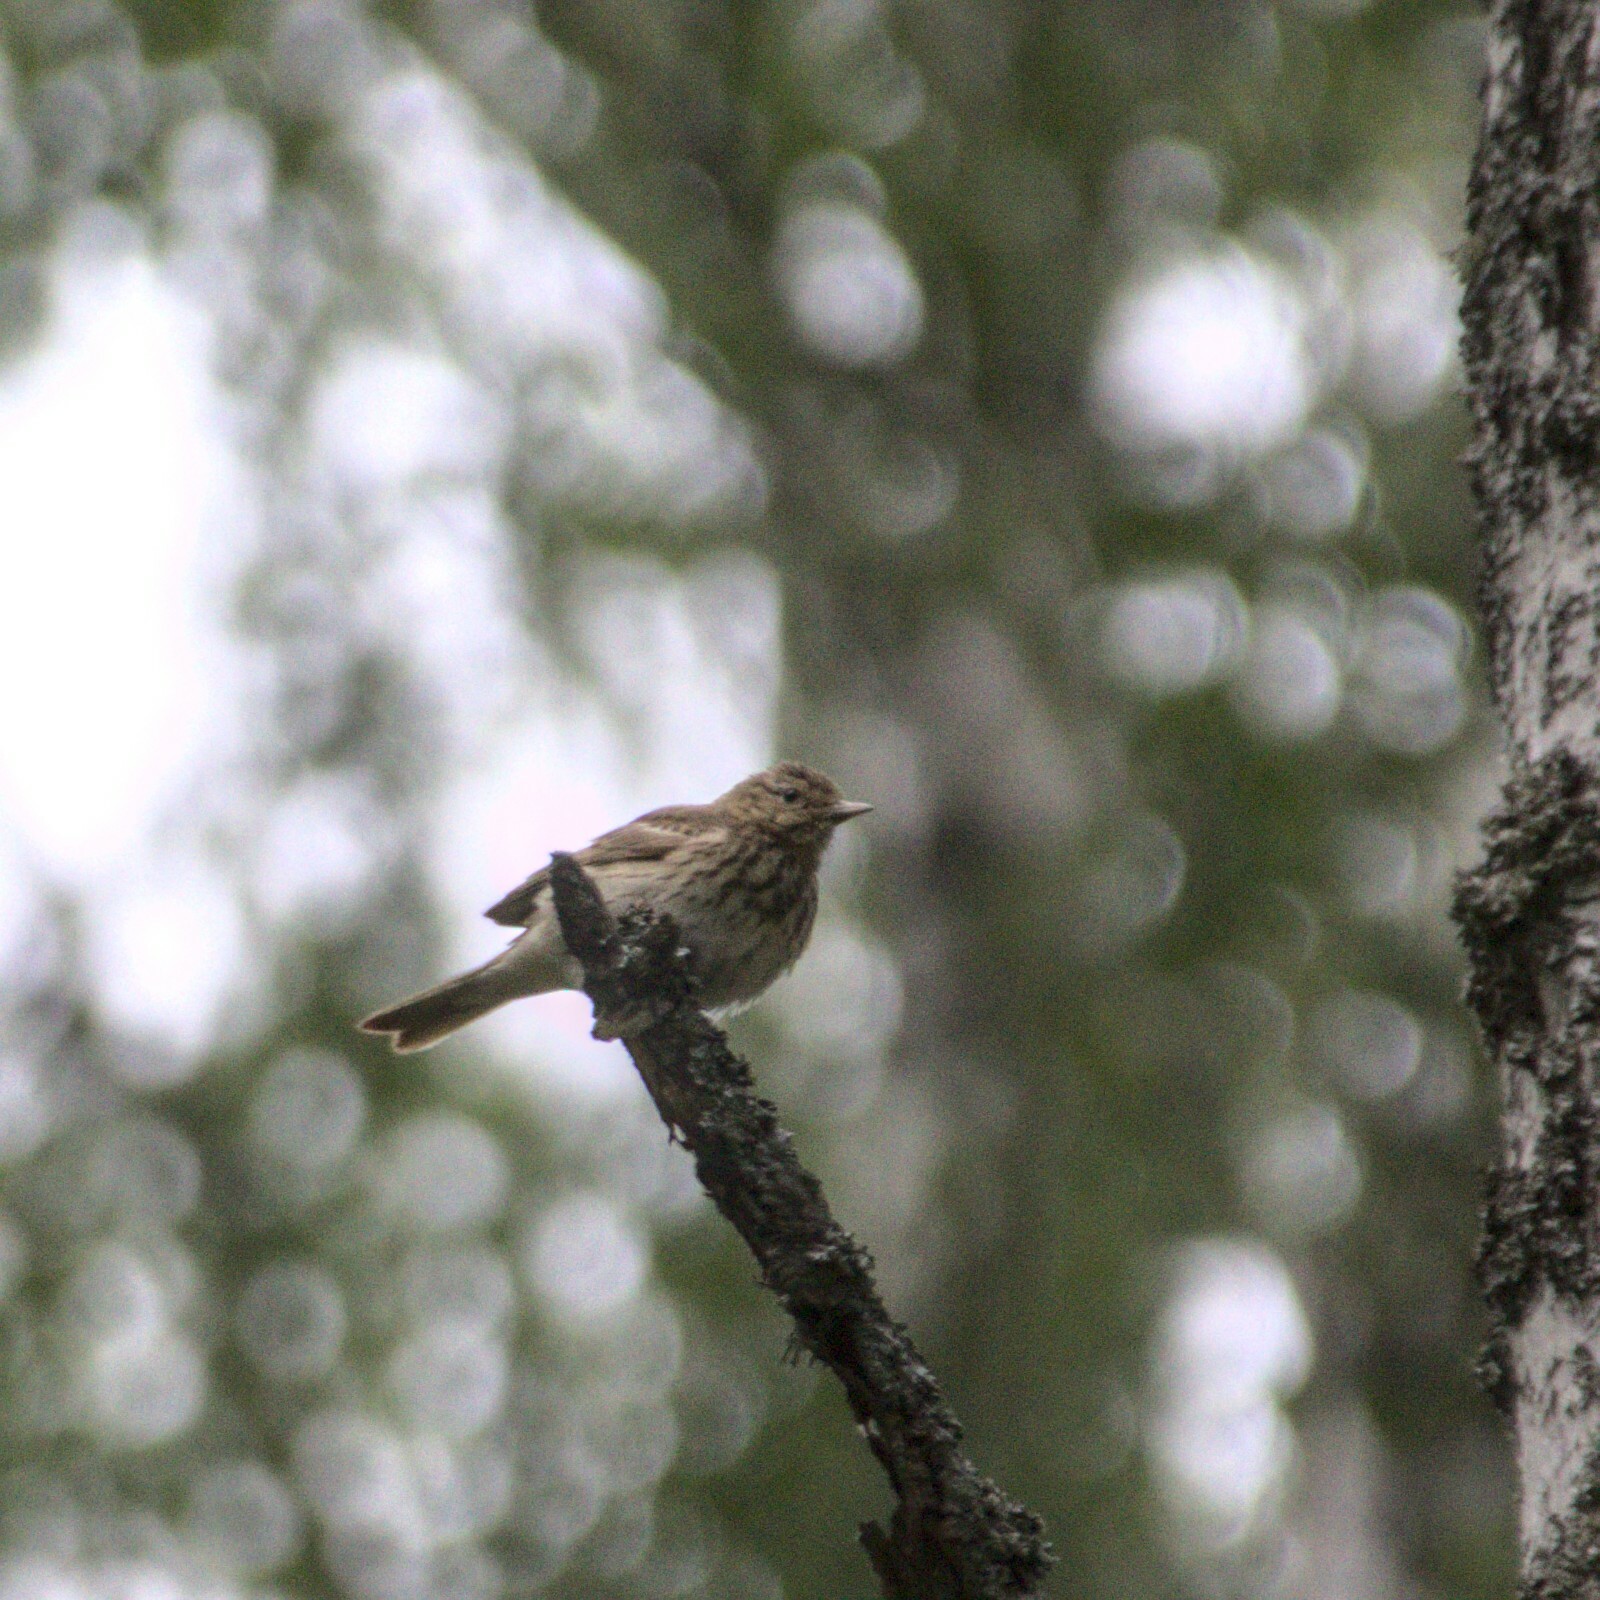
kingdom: Animalia
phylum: Chordata
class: Aves
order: Passeriformes
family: Motacillidae
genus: Anthus
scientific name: Anthus trivialis
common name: Tree pipit
